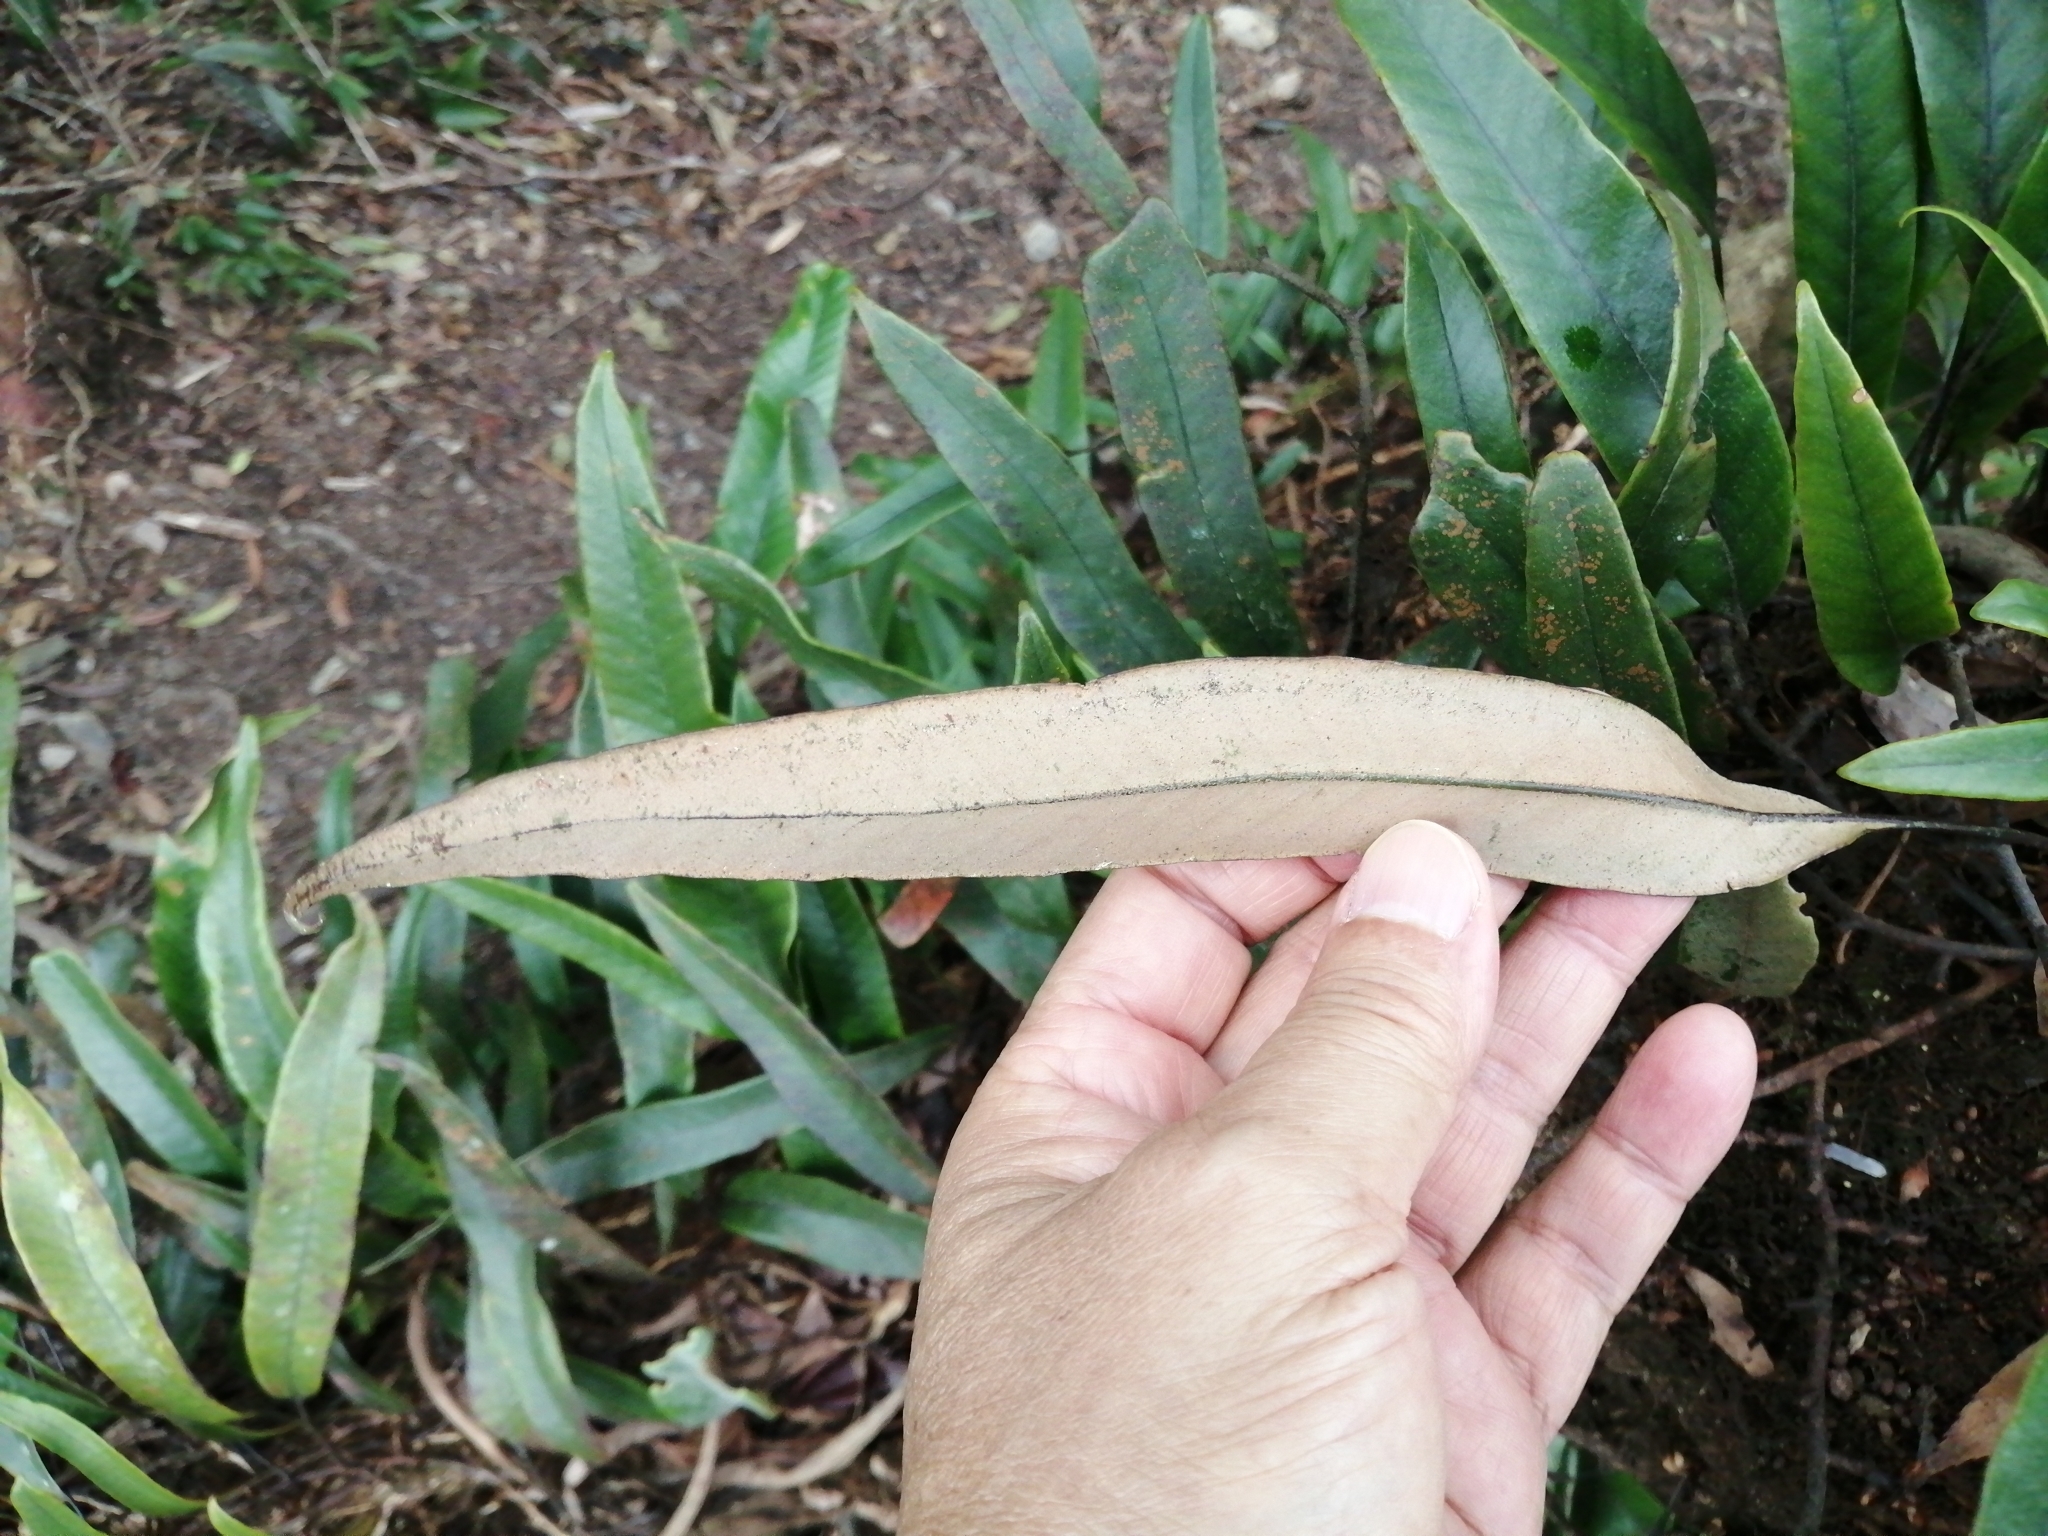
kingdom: Plantae
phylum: Tracheophyta
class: Polypodiopsida
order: Polypodiales
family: Polypodiaceae
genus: Pyrrosia
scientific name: Pyrrosia lingua
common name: Felt fern
